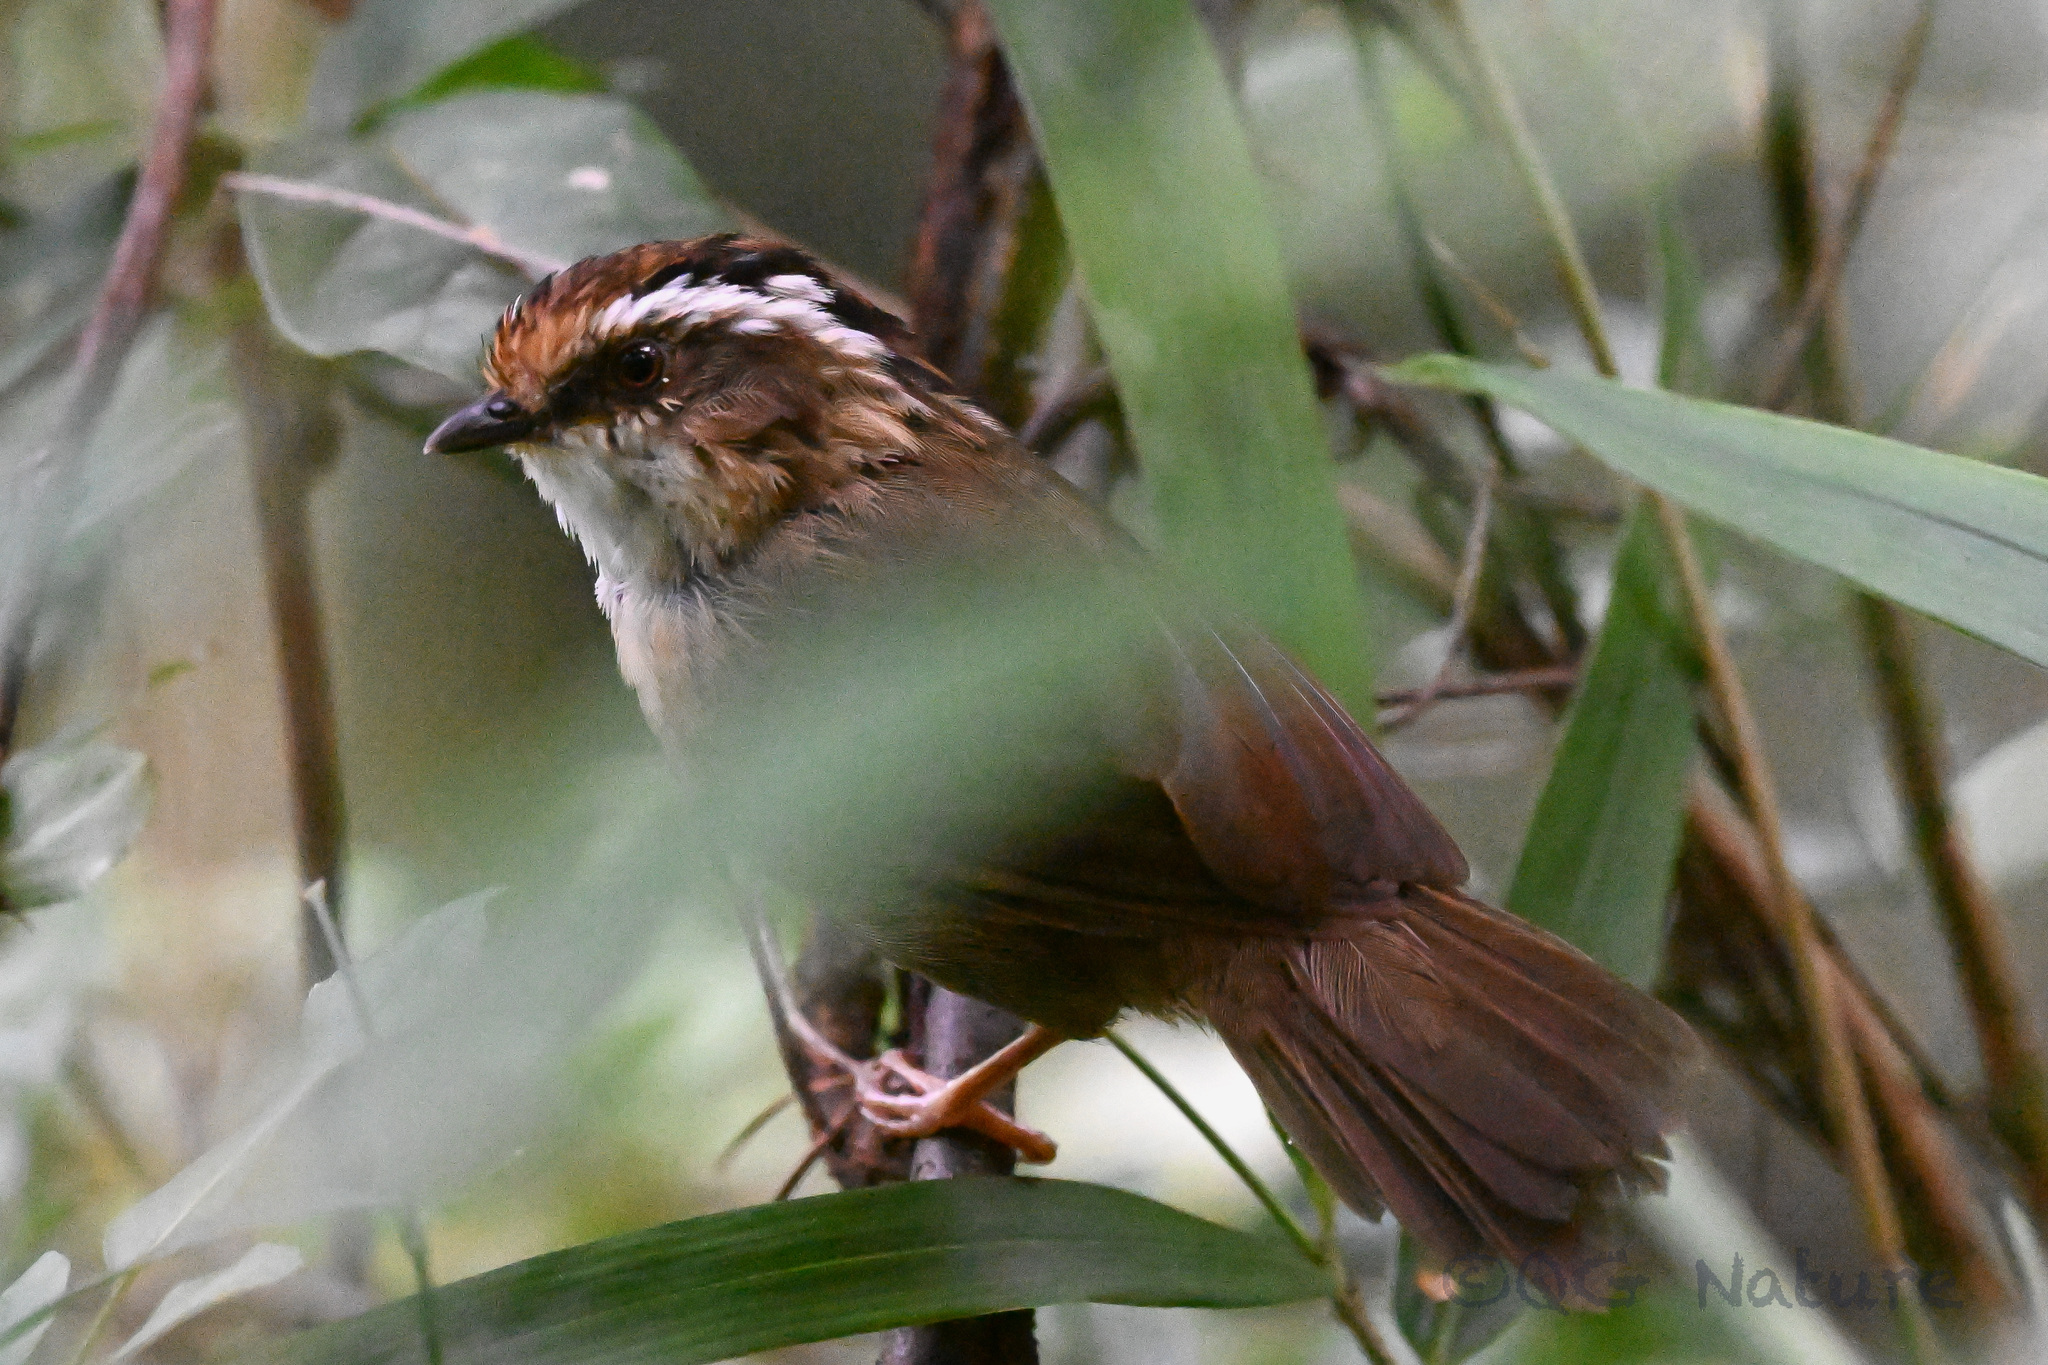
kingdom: Animalia
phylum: Chordata
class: Aves
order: Passeriformes
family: Pellorneidae
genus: Alcippe
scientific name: Alcippe dubia
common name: Rusty-capped fulvetta
